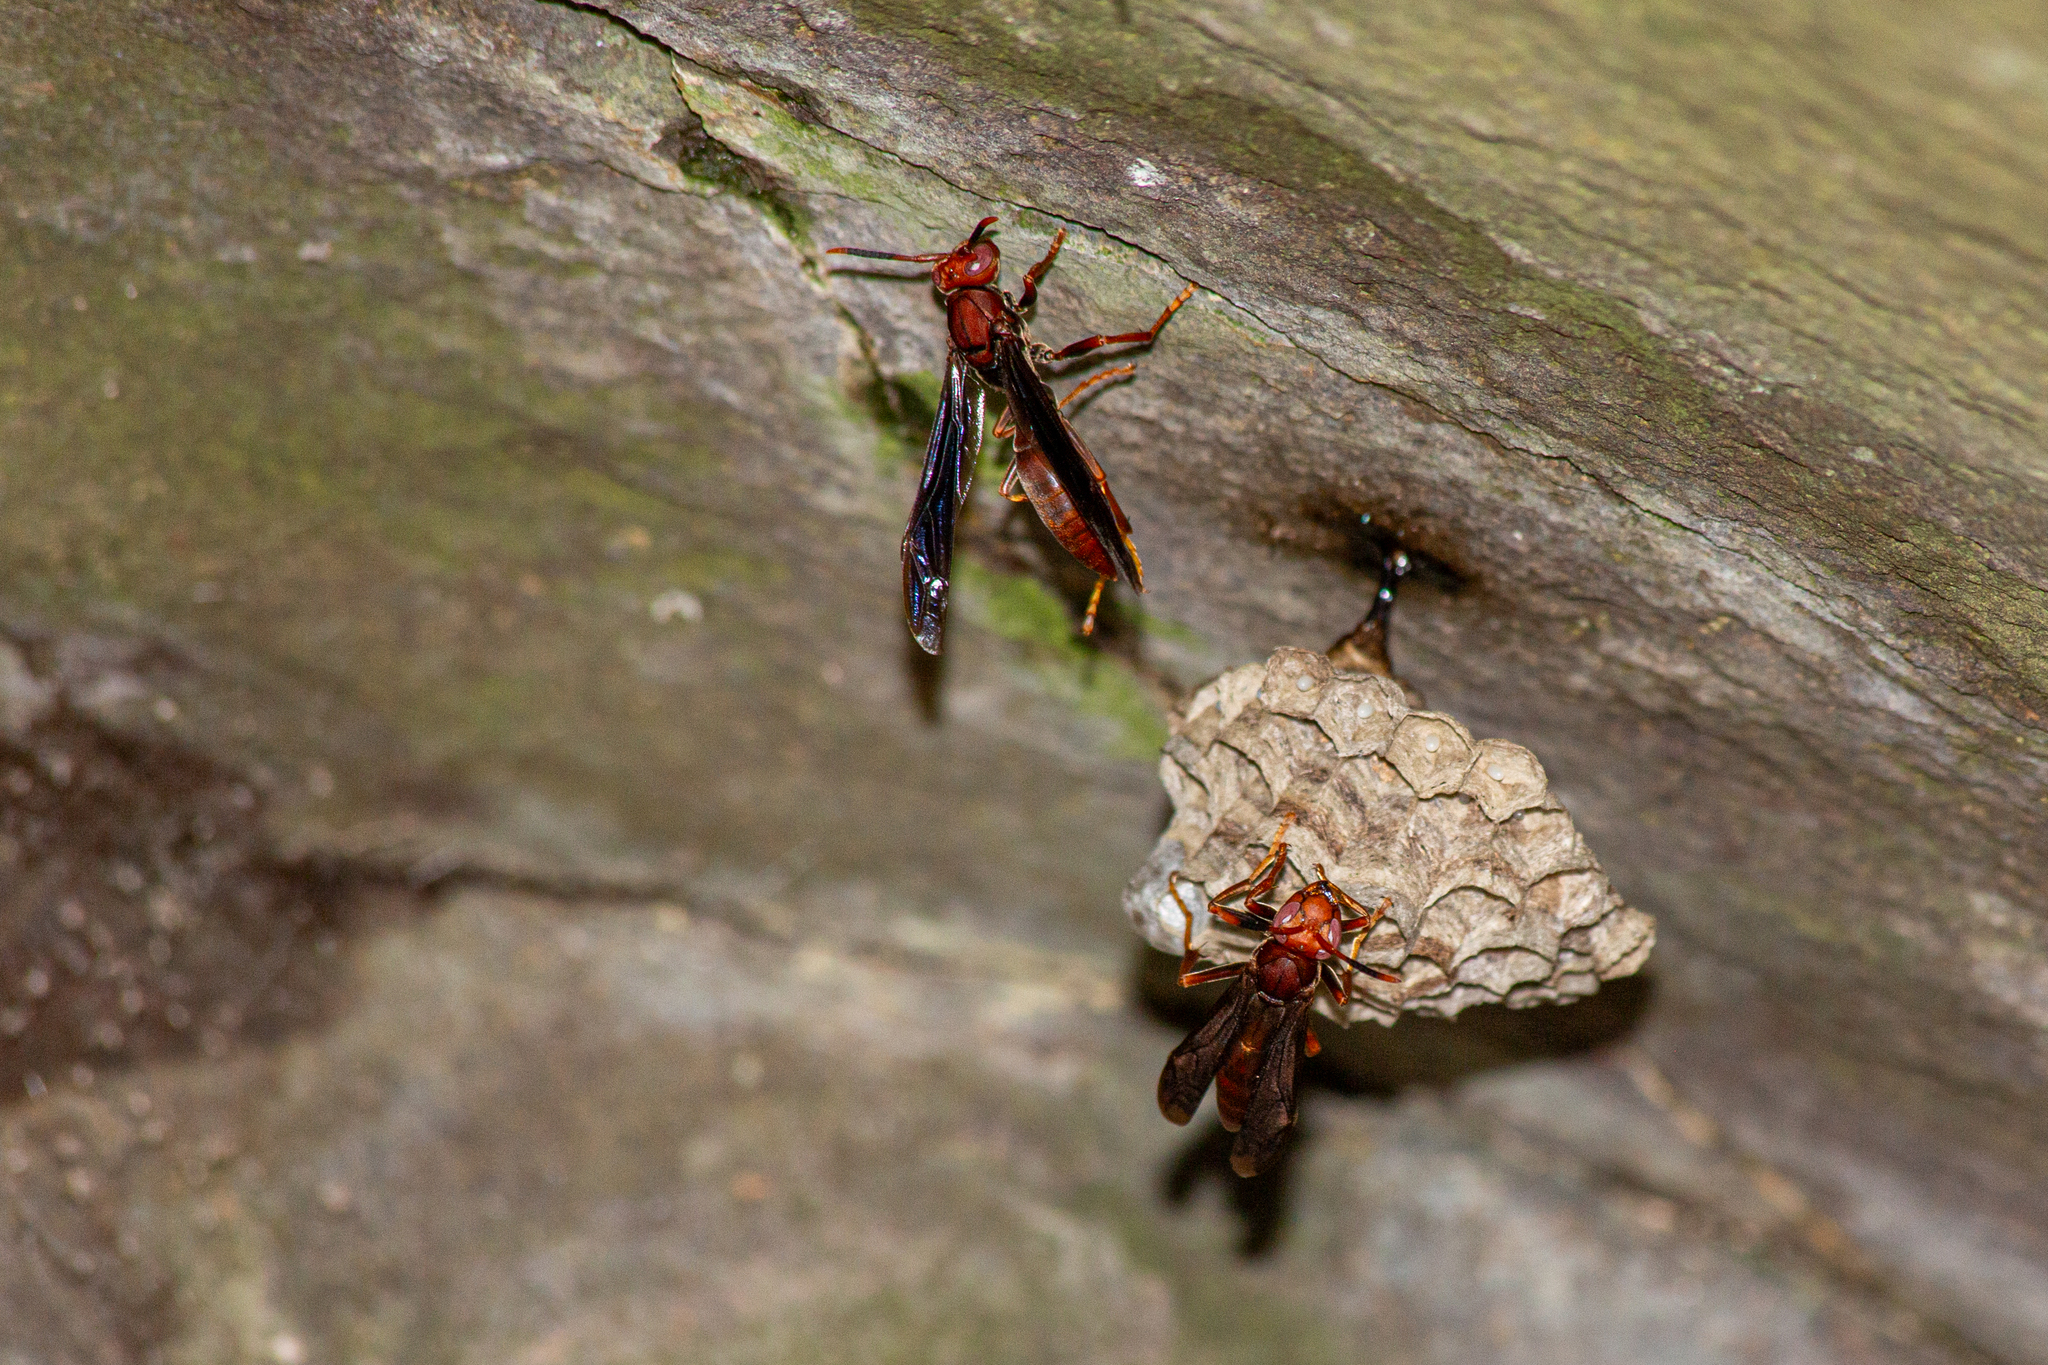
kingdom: Animalia
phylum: Arthropoda
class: Insecta
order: Hymenoptera
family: Eumenidae
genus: Polistes
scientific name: Polistes lanio
